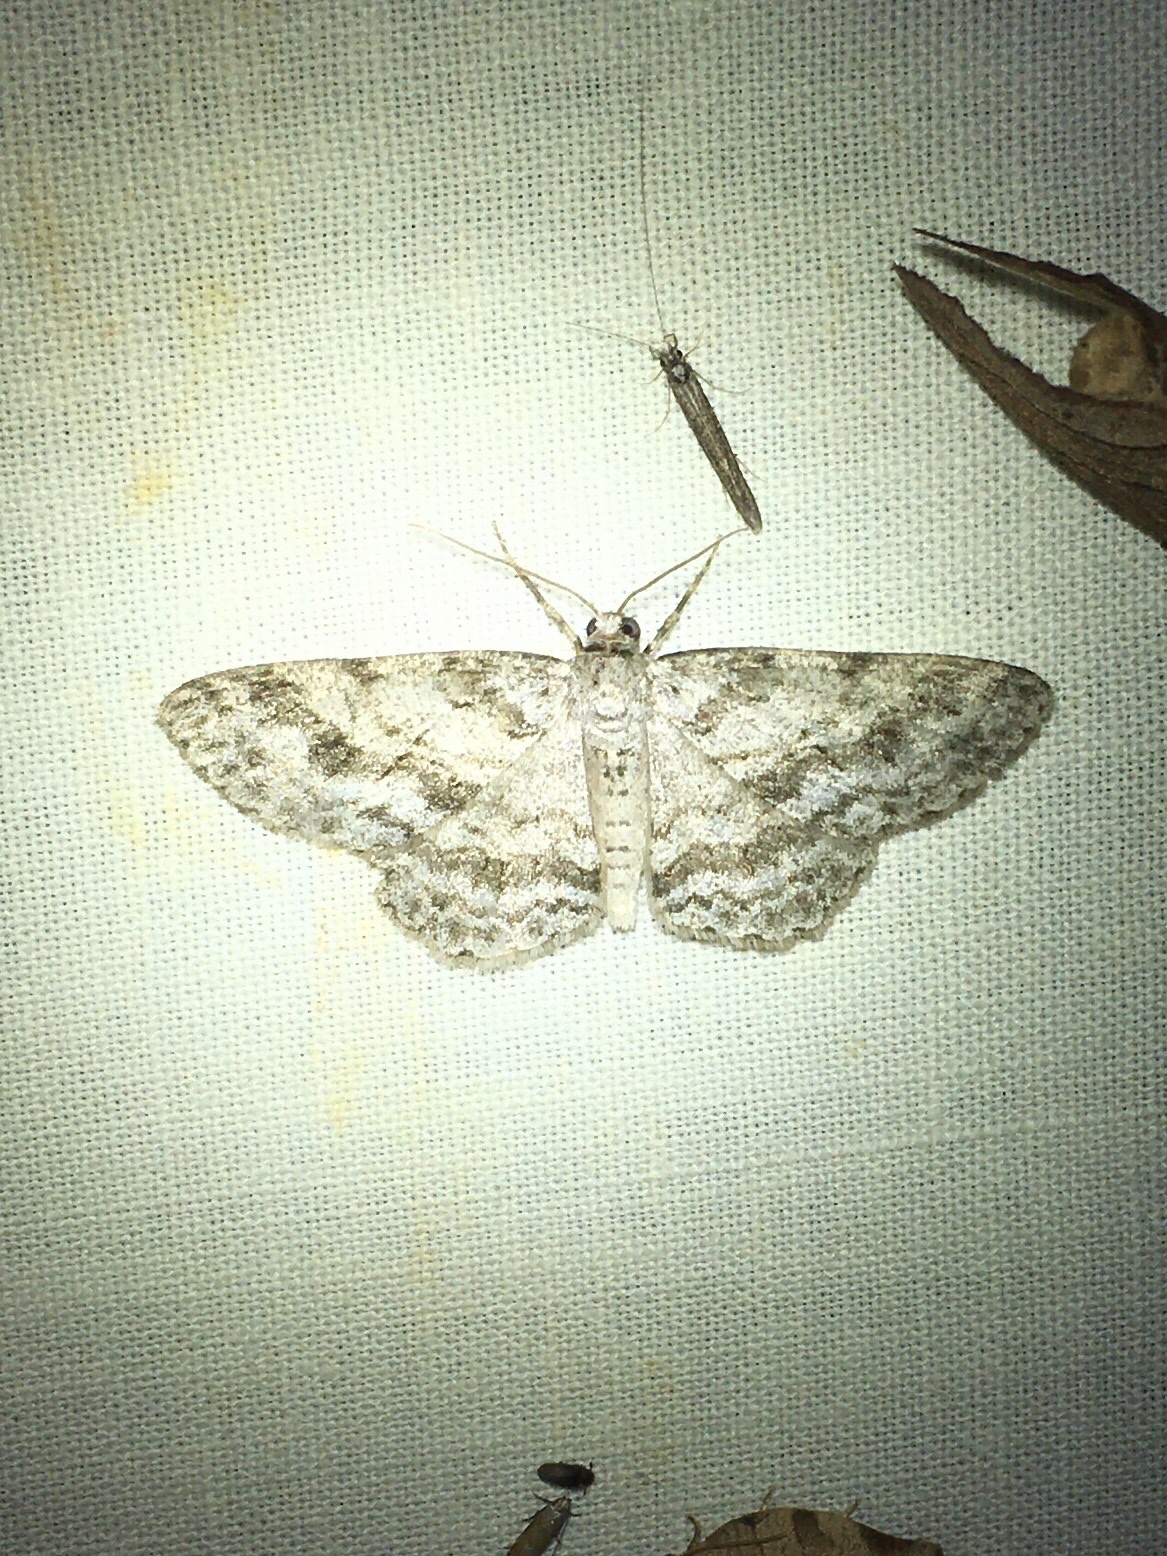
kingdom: Animalia
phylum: Arthropoda
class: Insecta
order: Lepidoptera
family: Geometridae
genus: Ectropis
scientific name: Ectropis crepuscularia
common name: Engrailed
